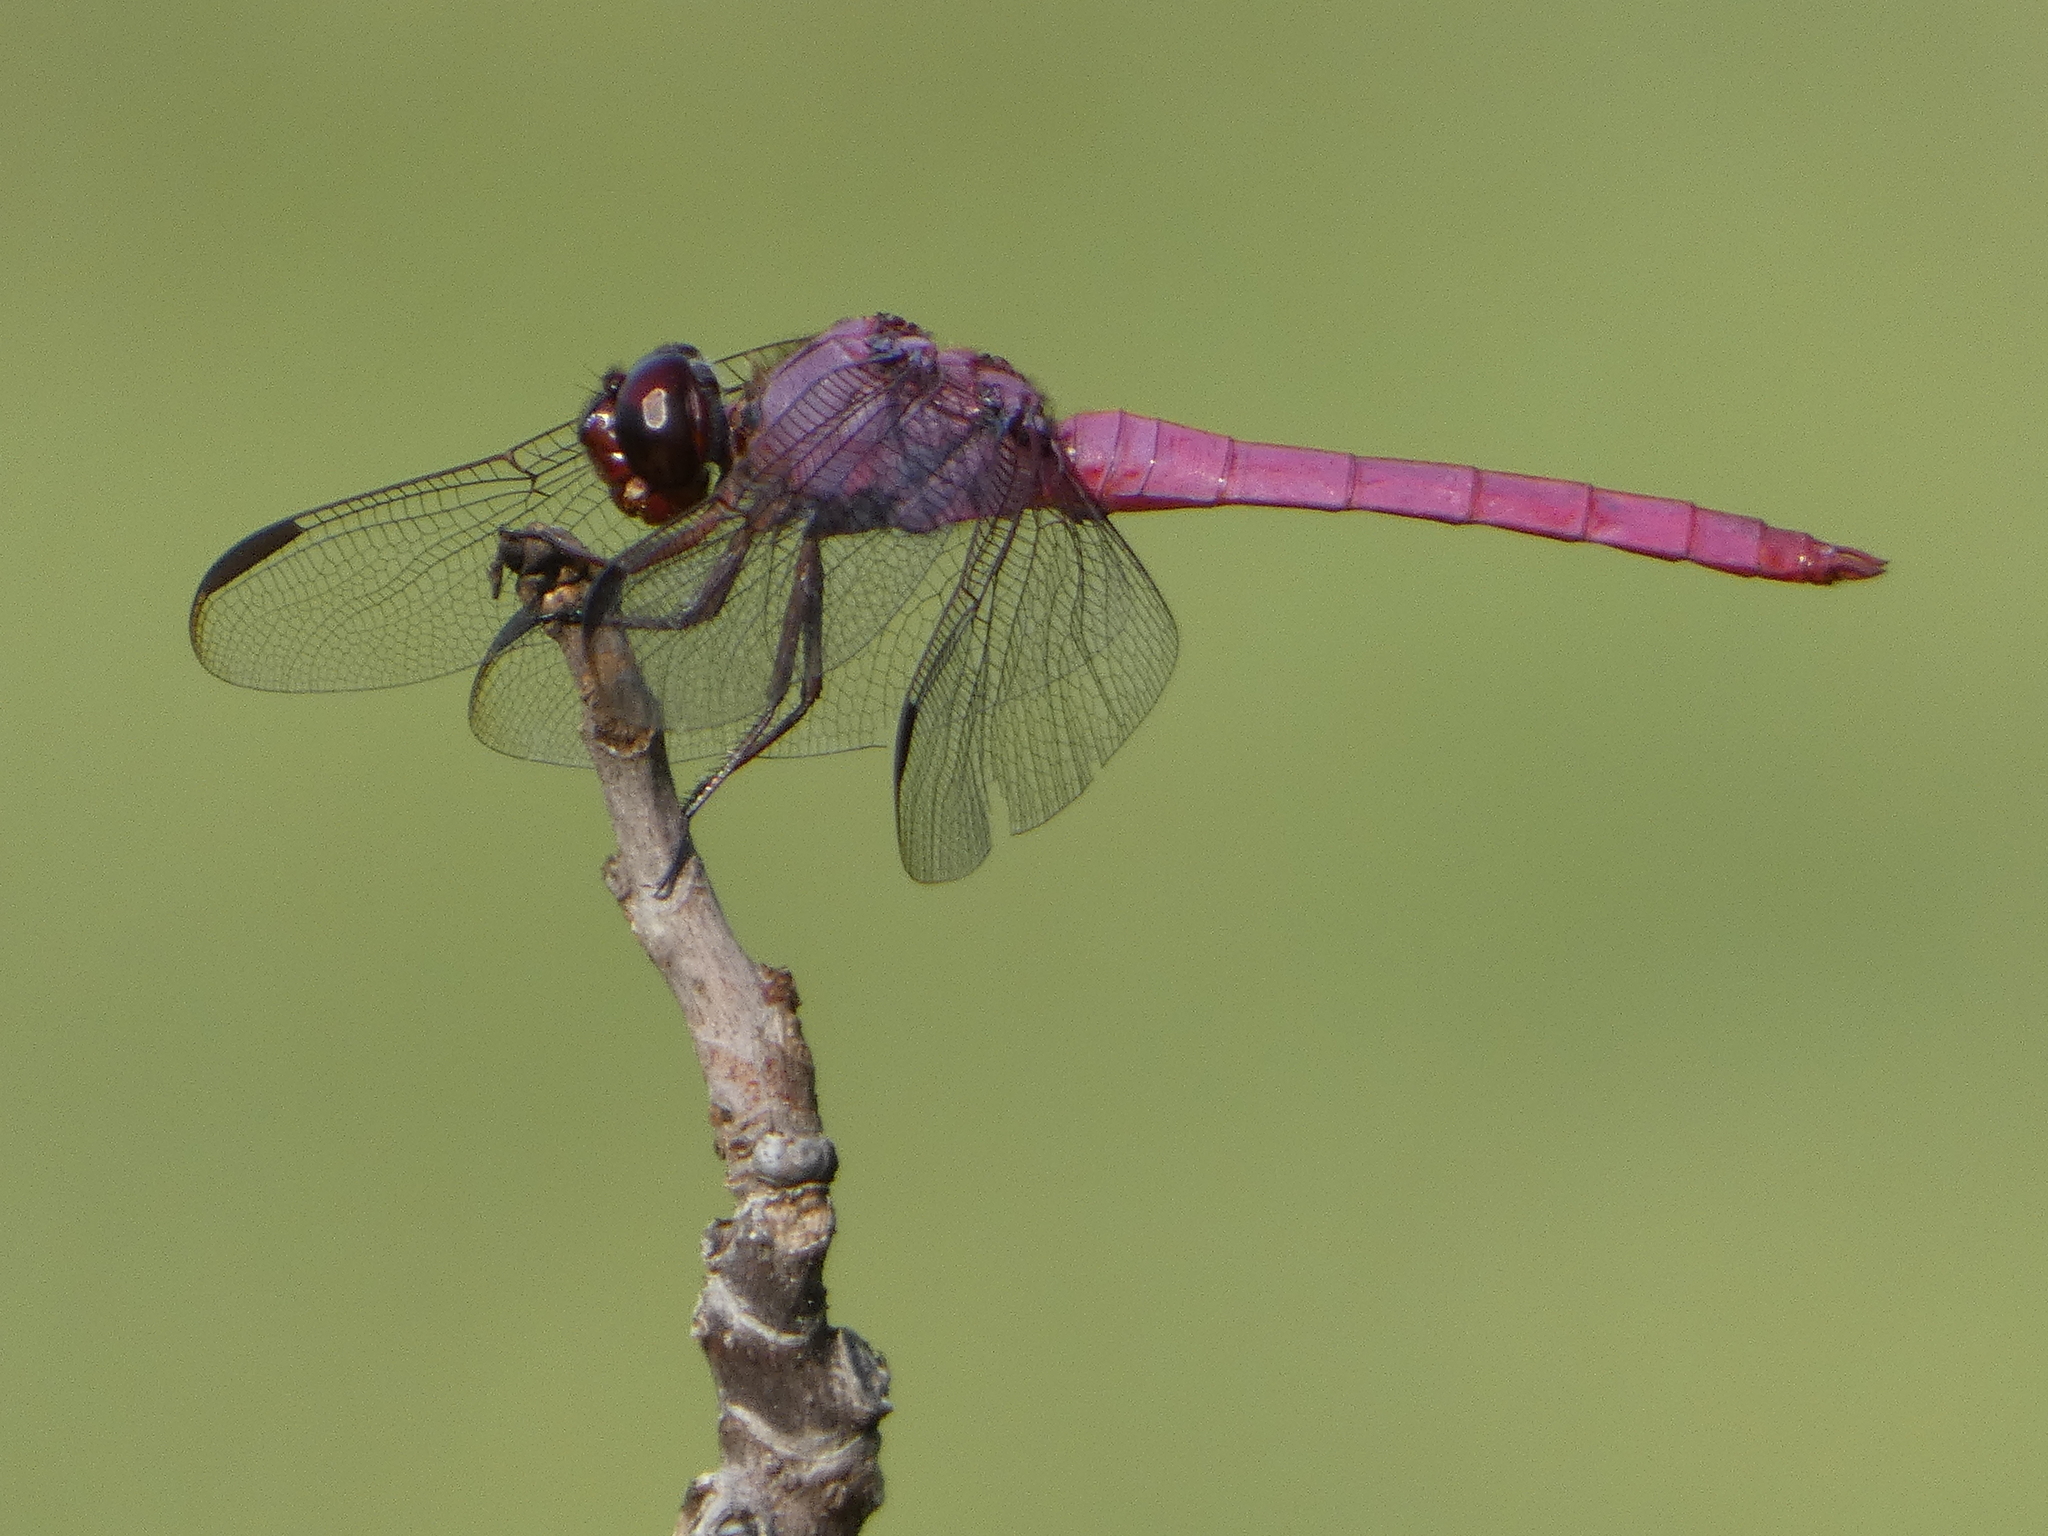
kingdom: Animalia
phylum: Arthropoda
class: Insecta
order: Odonata
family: Libellulidae
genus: Orthemis
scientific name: Orthemis ferruginea
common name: Roseate skimmer
